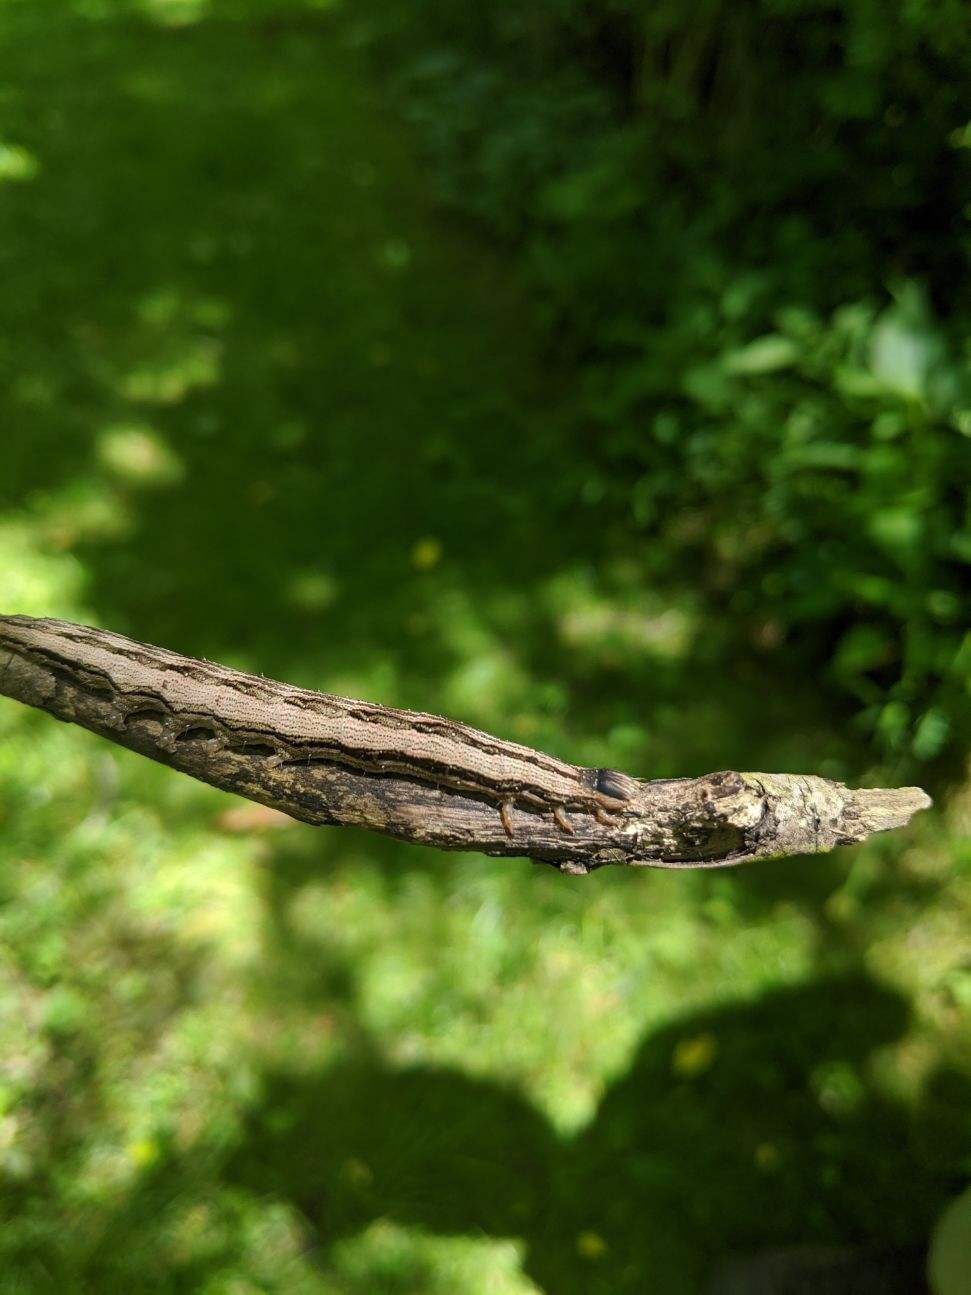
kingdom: Animalia
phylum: Arthropoda
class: Insecta
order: Lepidoptera
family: Erebidae
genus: Catocala
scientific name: Catocala epione
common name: Epione underwing
